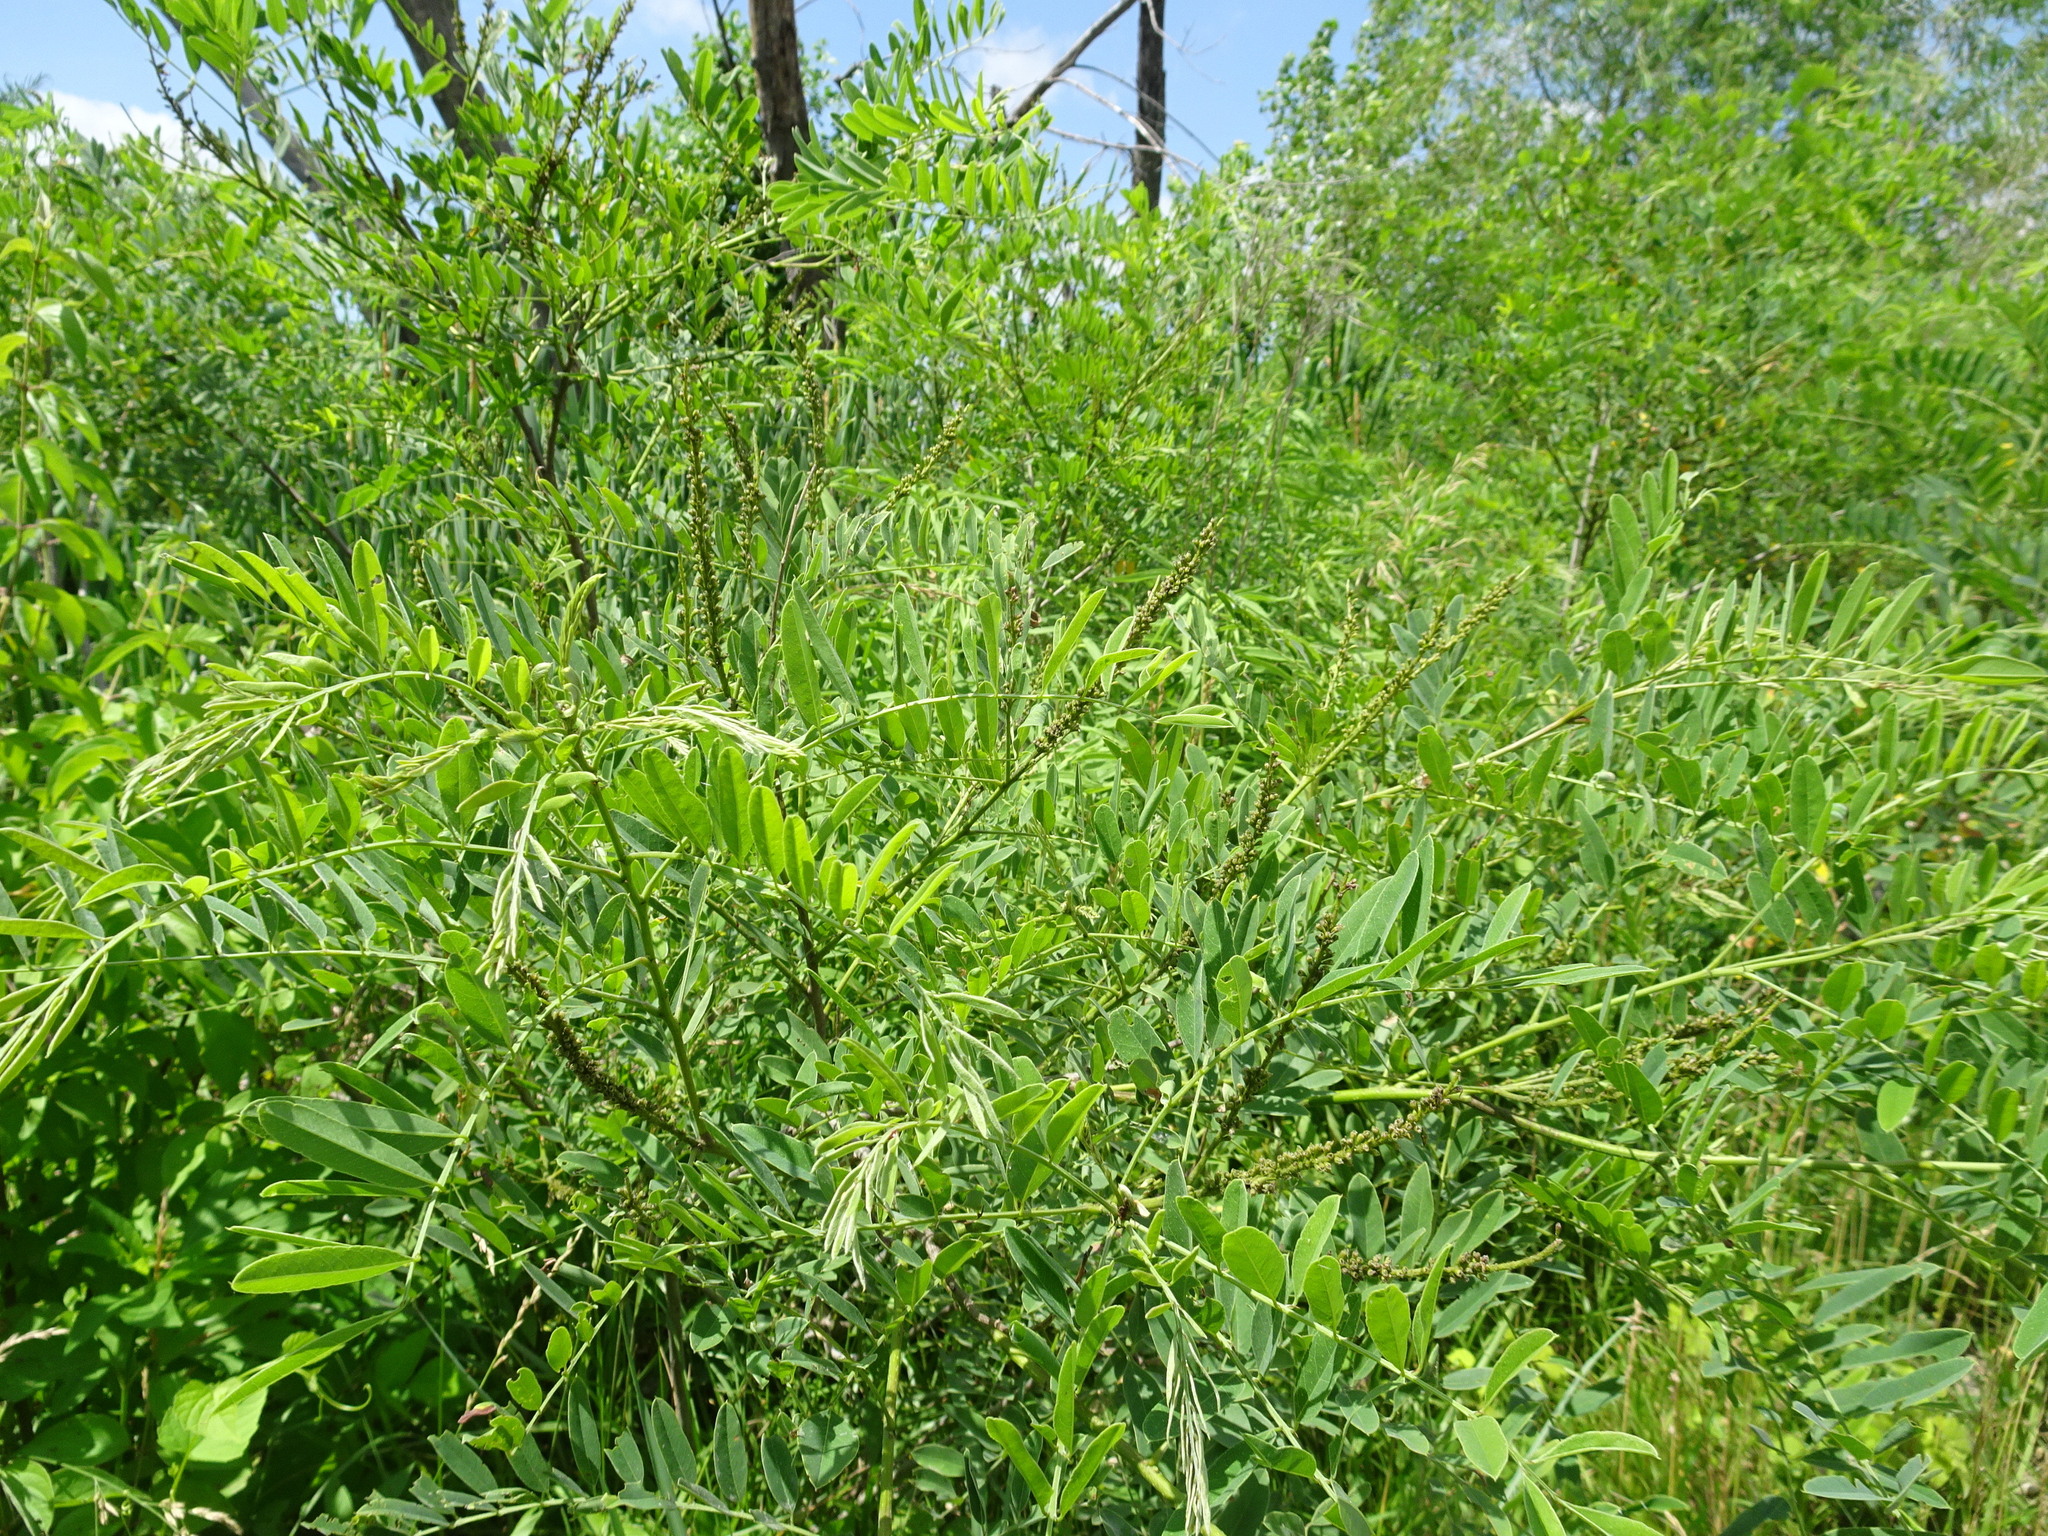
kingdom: Plantae
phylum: Tracheophyta
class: Magnoliopsida
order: Fabales
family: Fabaceae
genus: Amorpha
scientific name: Amorpha fruticosa
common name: False indigo
